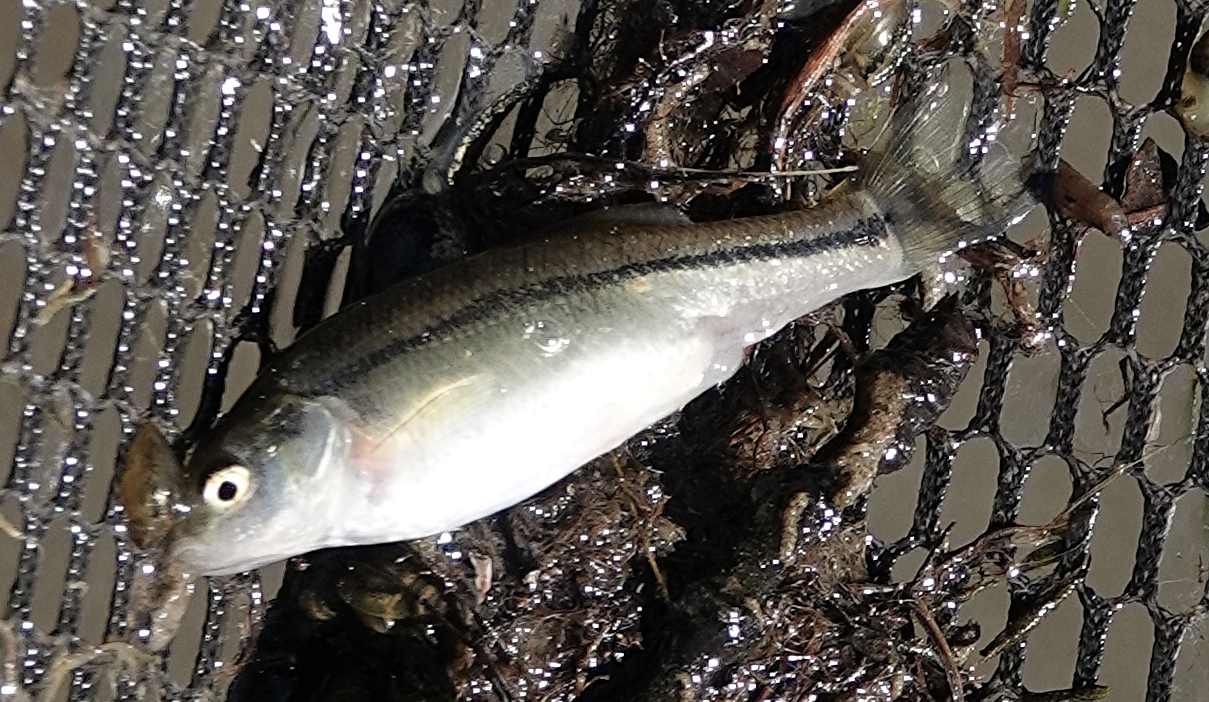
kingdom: Animalia
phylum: Chordata
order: Cypriniformes
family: Cyprinidae
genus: Pimephales
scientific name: Pimephales promelas
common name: Fathead minnow
